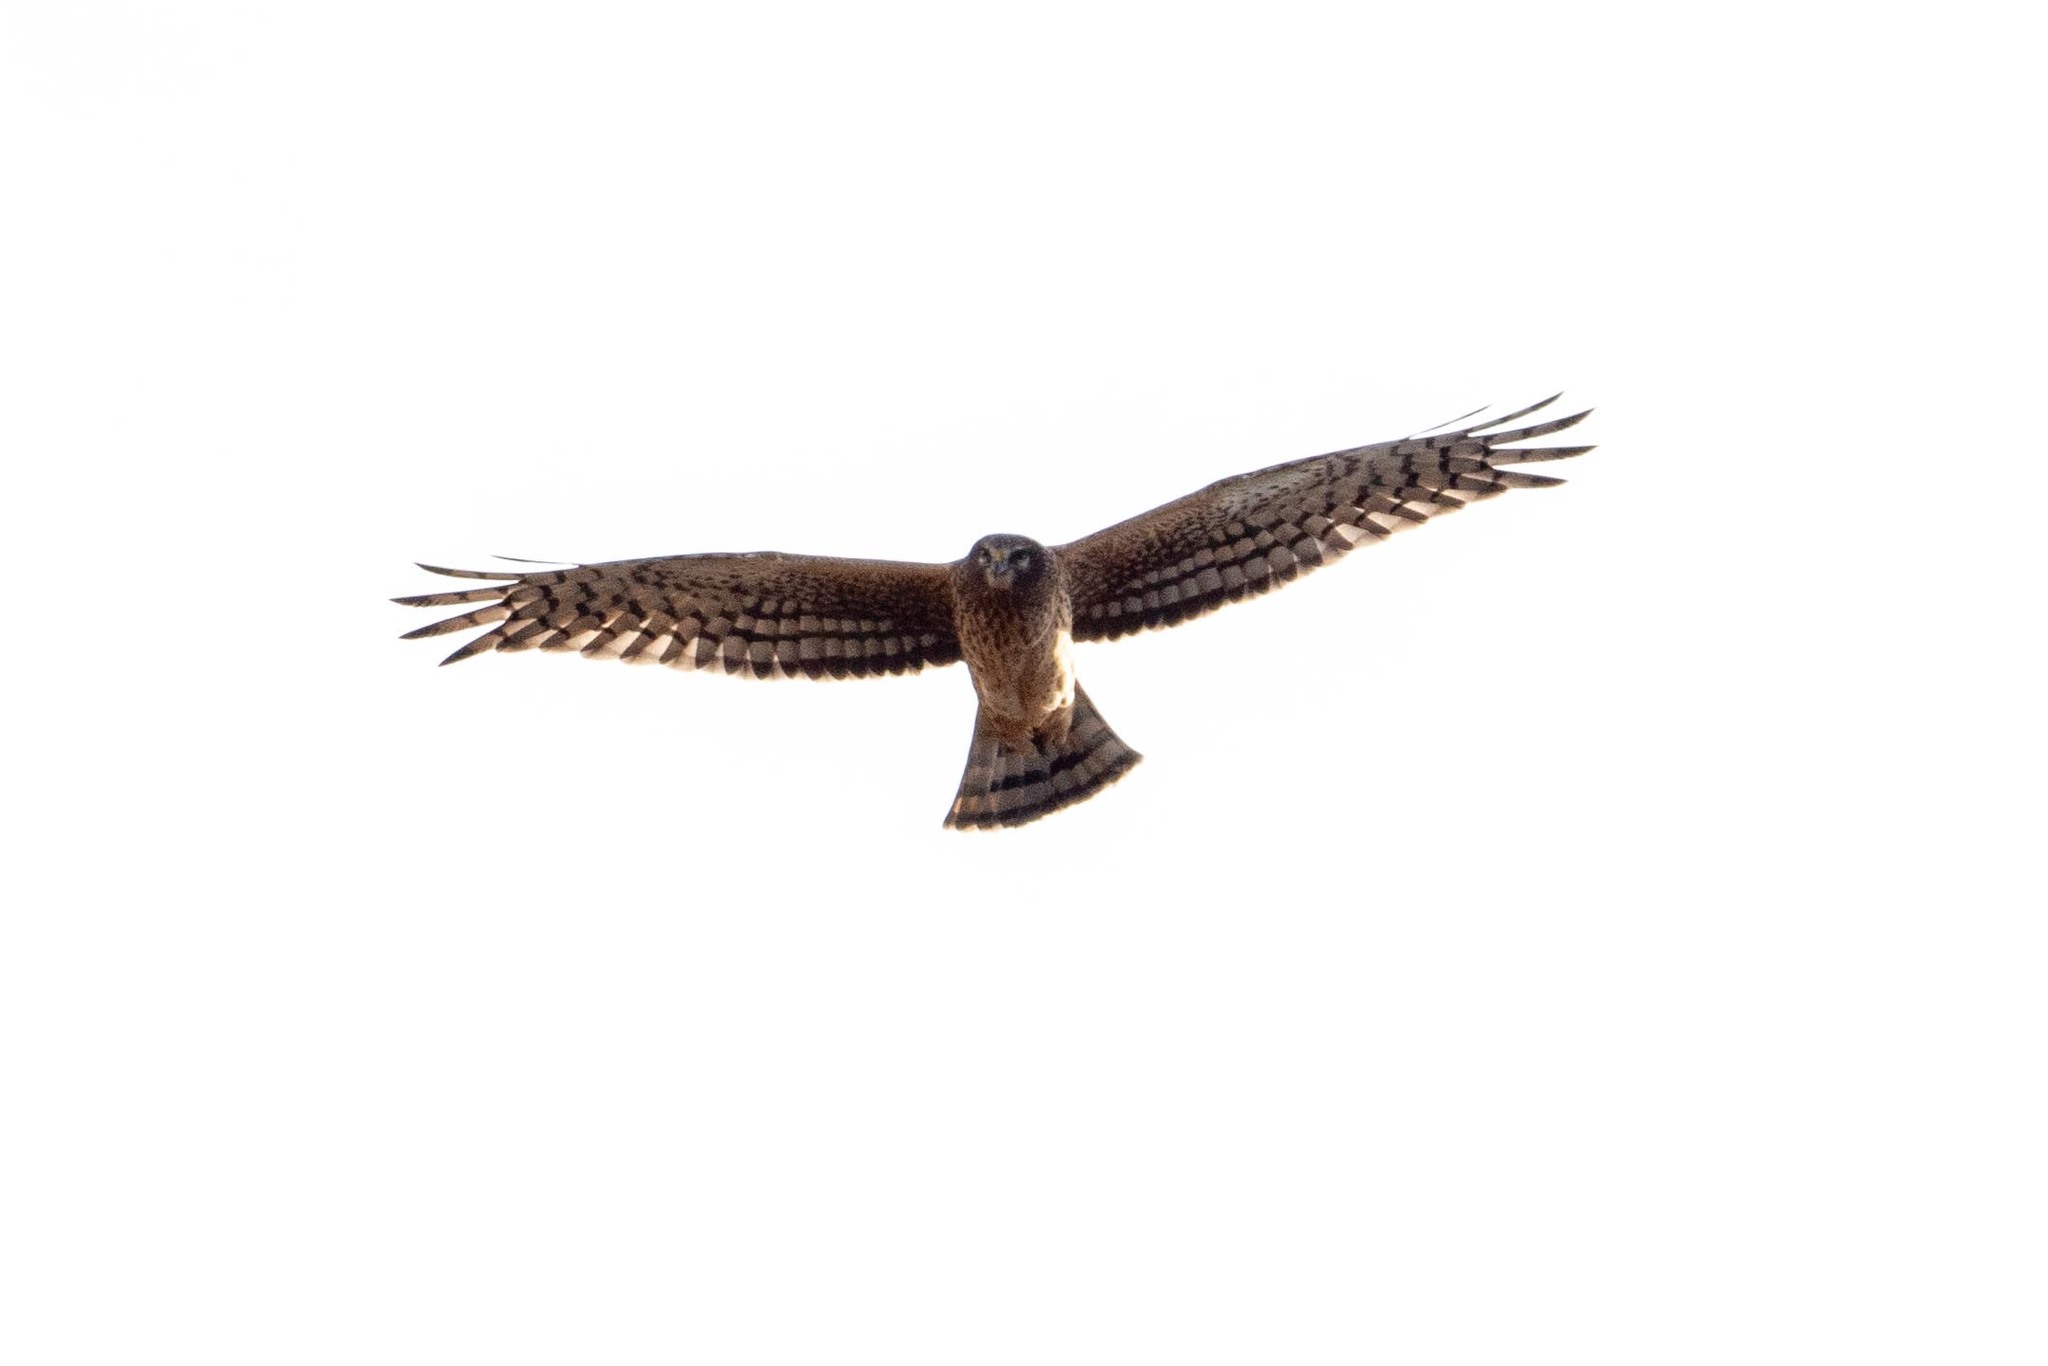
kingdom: Animalia
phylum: Chordata
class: Aves
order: Accipitriformes
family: Accipitridae
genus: Circus
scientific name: Circus cyaneus
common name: Hen harrier
